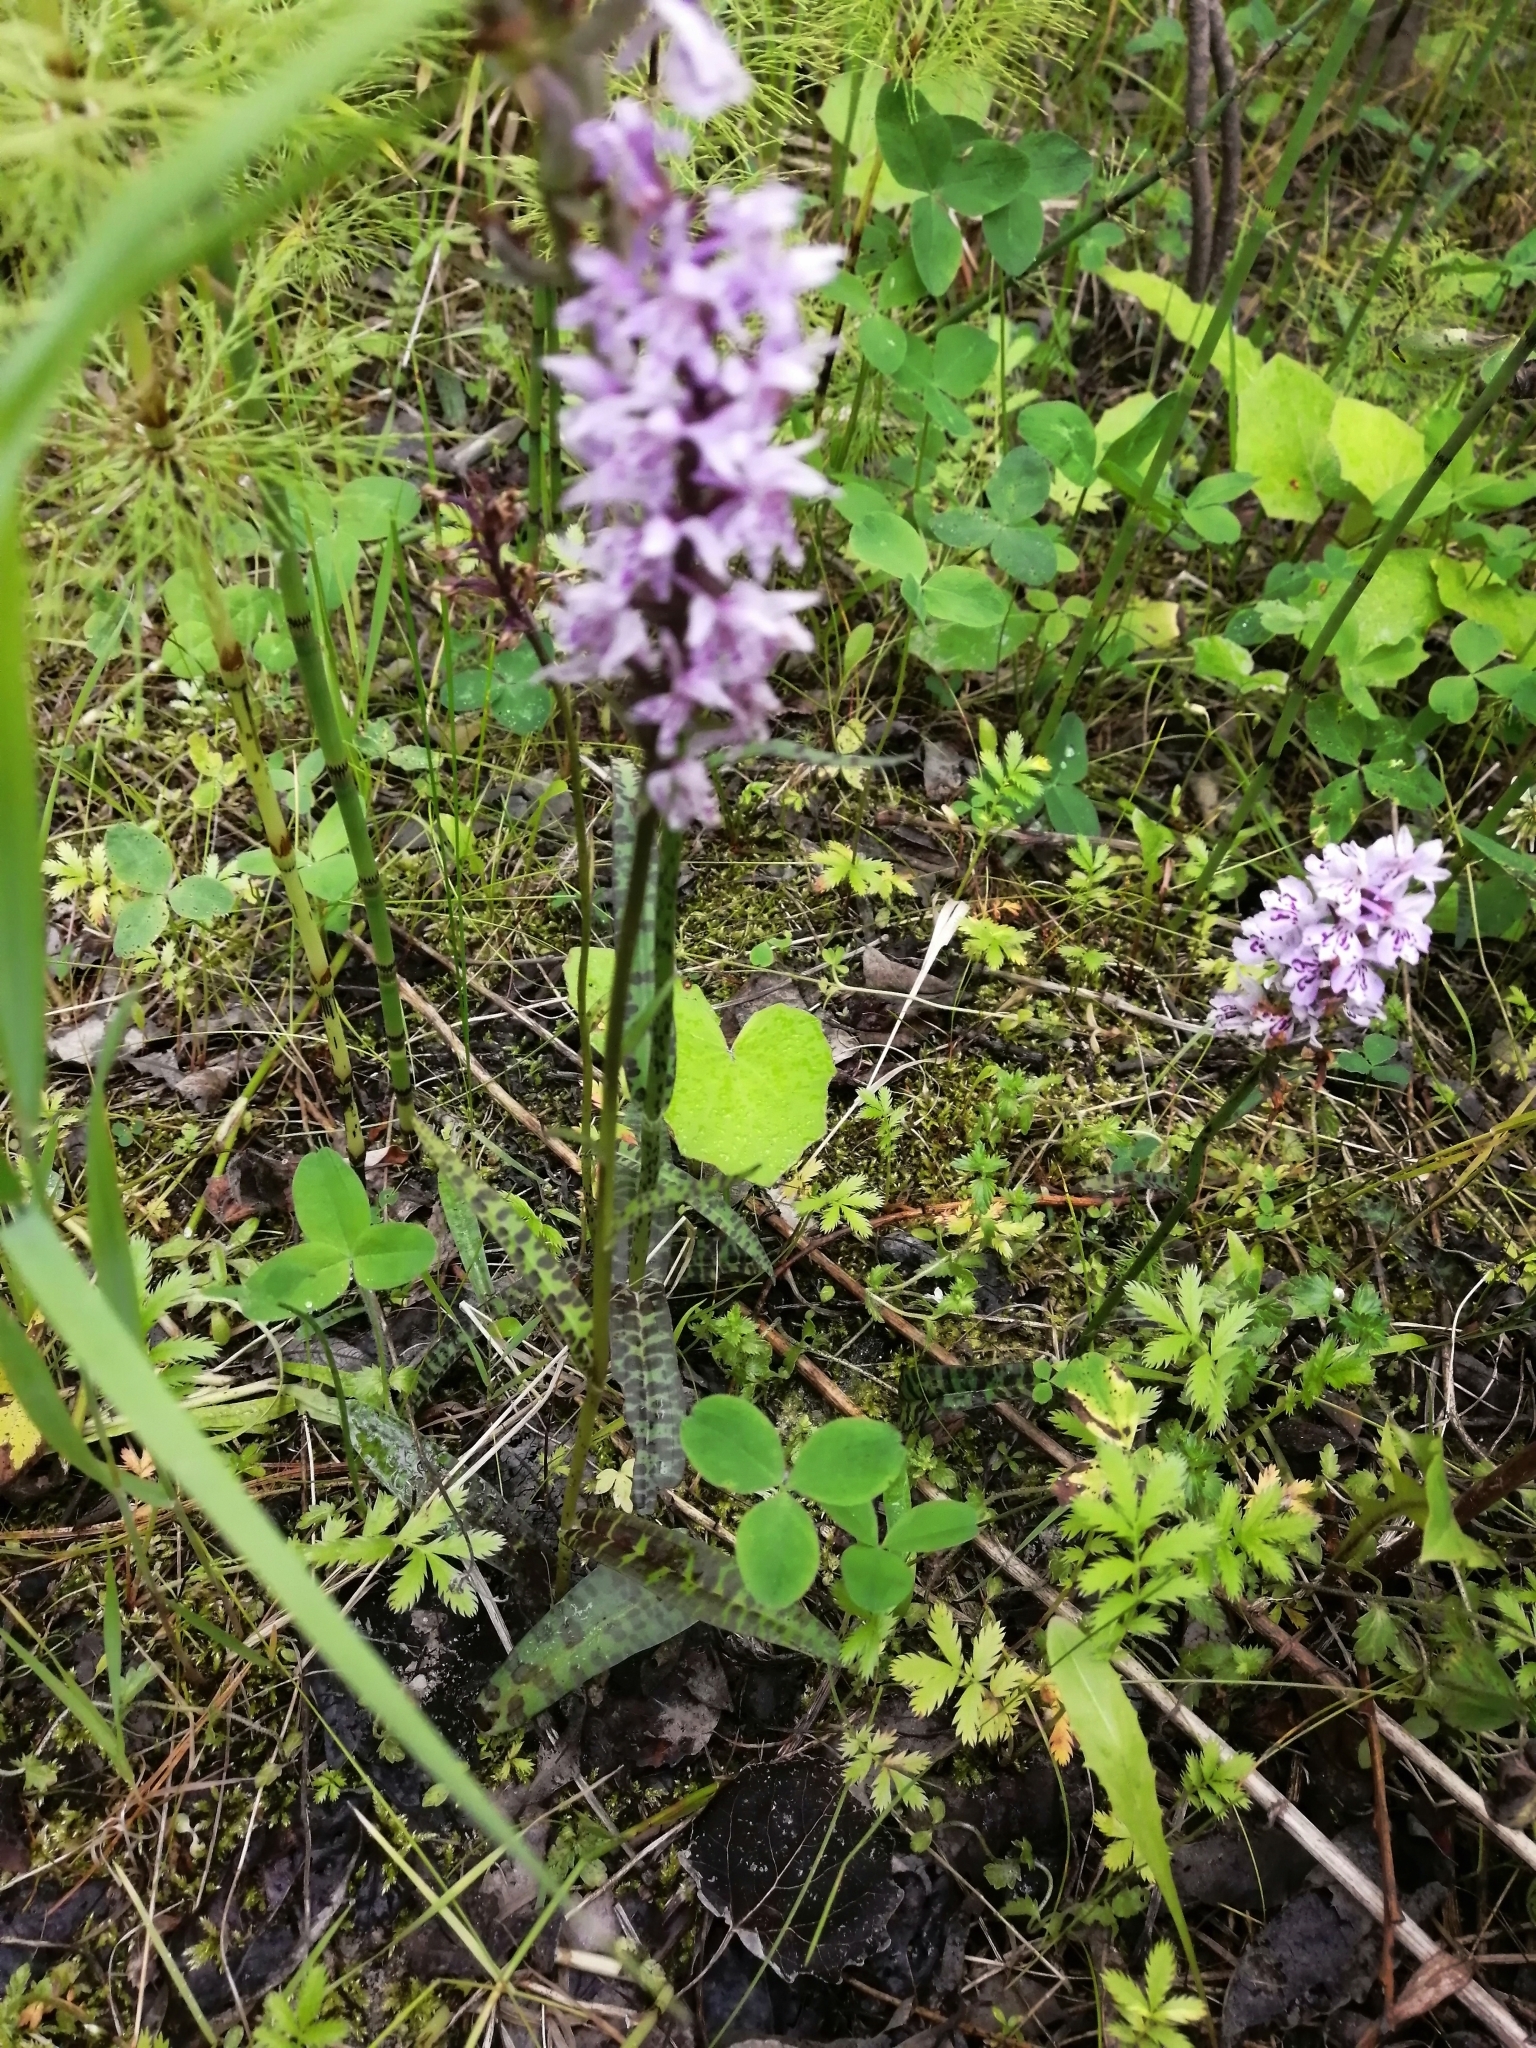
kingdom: Plantae
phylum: Tracheophyta
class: Liliopsida
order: Asparagales
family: Orchidaceae
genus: Dactylorhiza
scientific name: Dactylorhiza maculata
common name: Heath spotted-orchid
